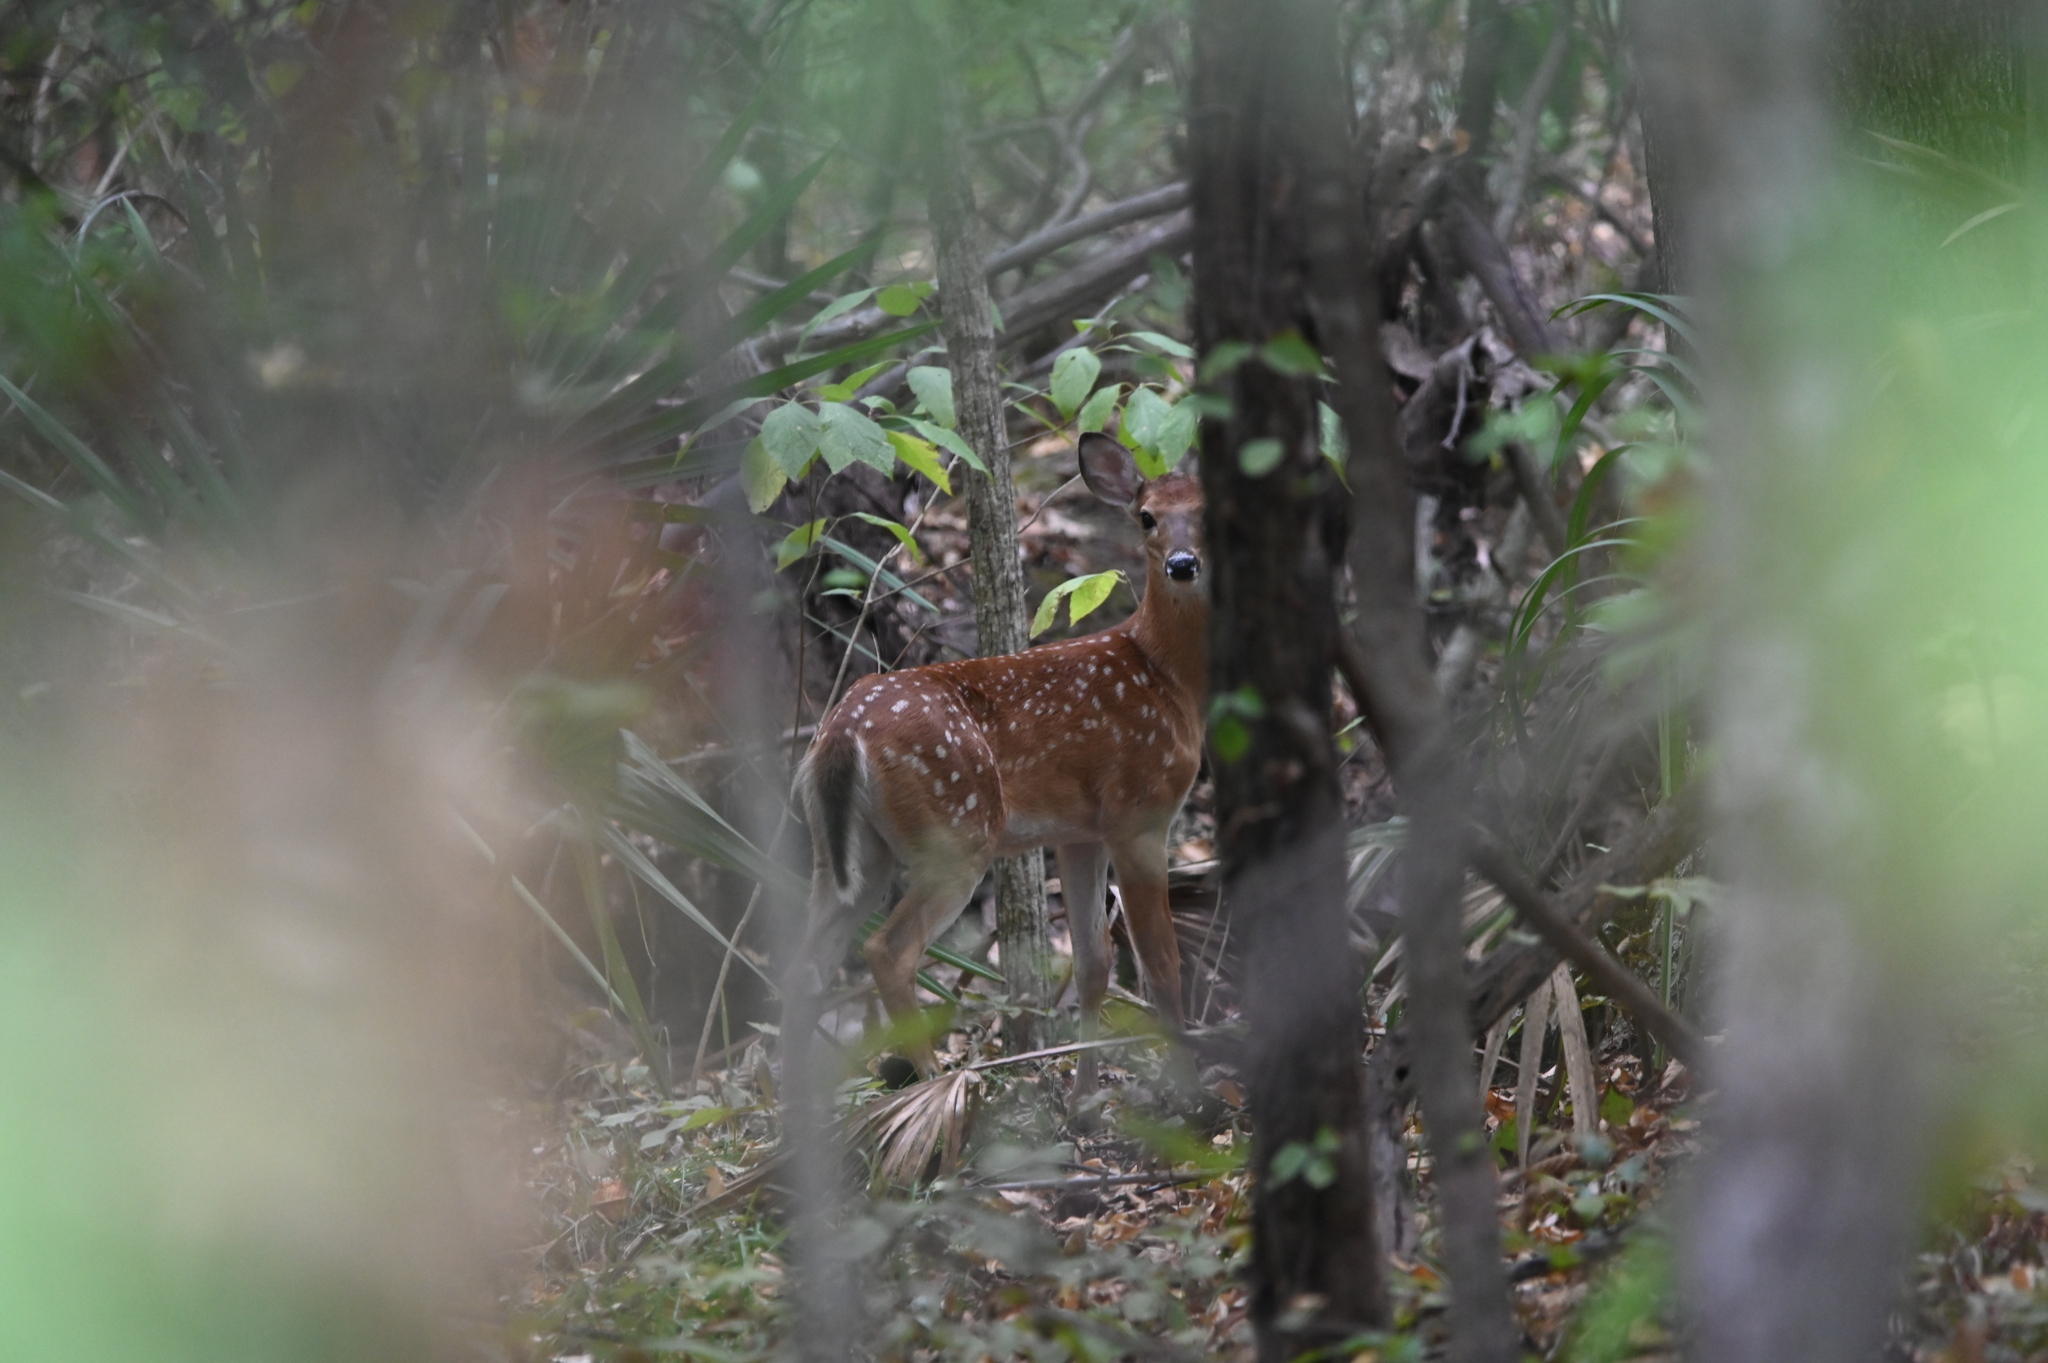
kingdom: Animalia
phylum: Chordata
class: Mammalia
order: Artiodactyla
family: Cervidae
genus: Odocoileus
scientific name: Odocoileus virginianus
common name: White-tailed deer
